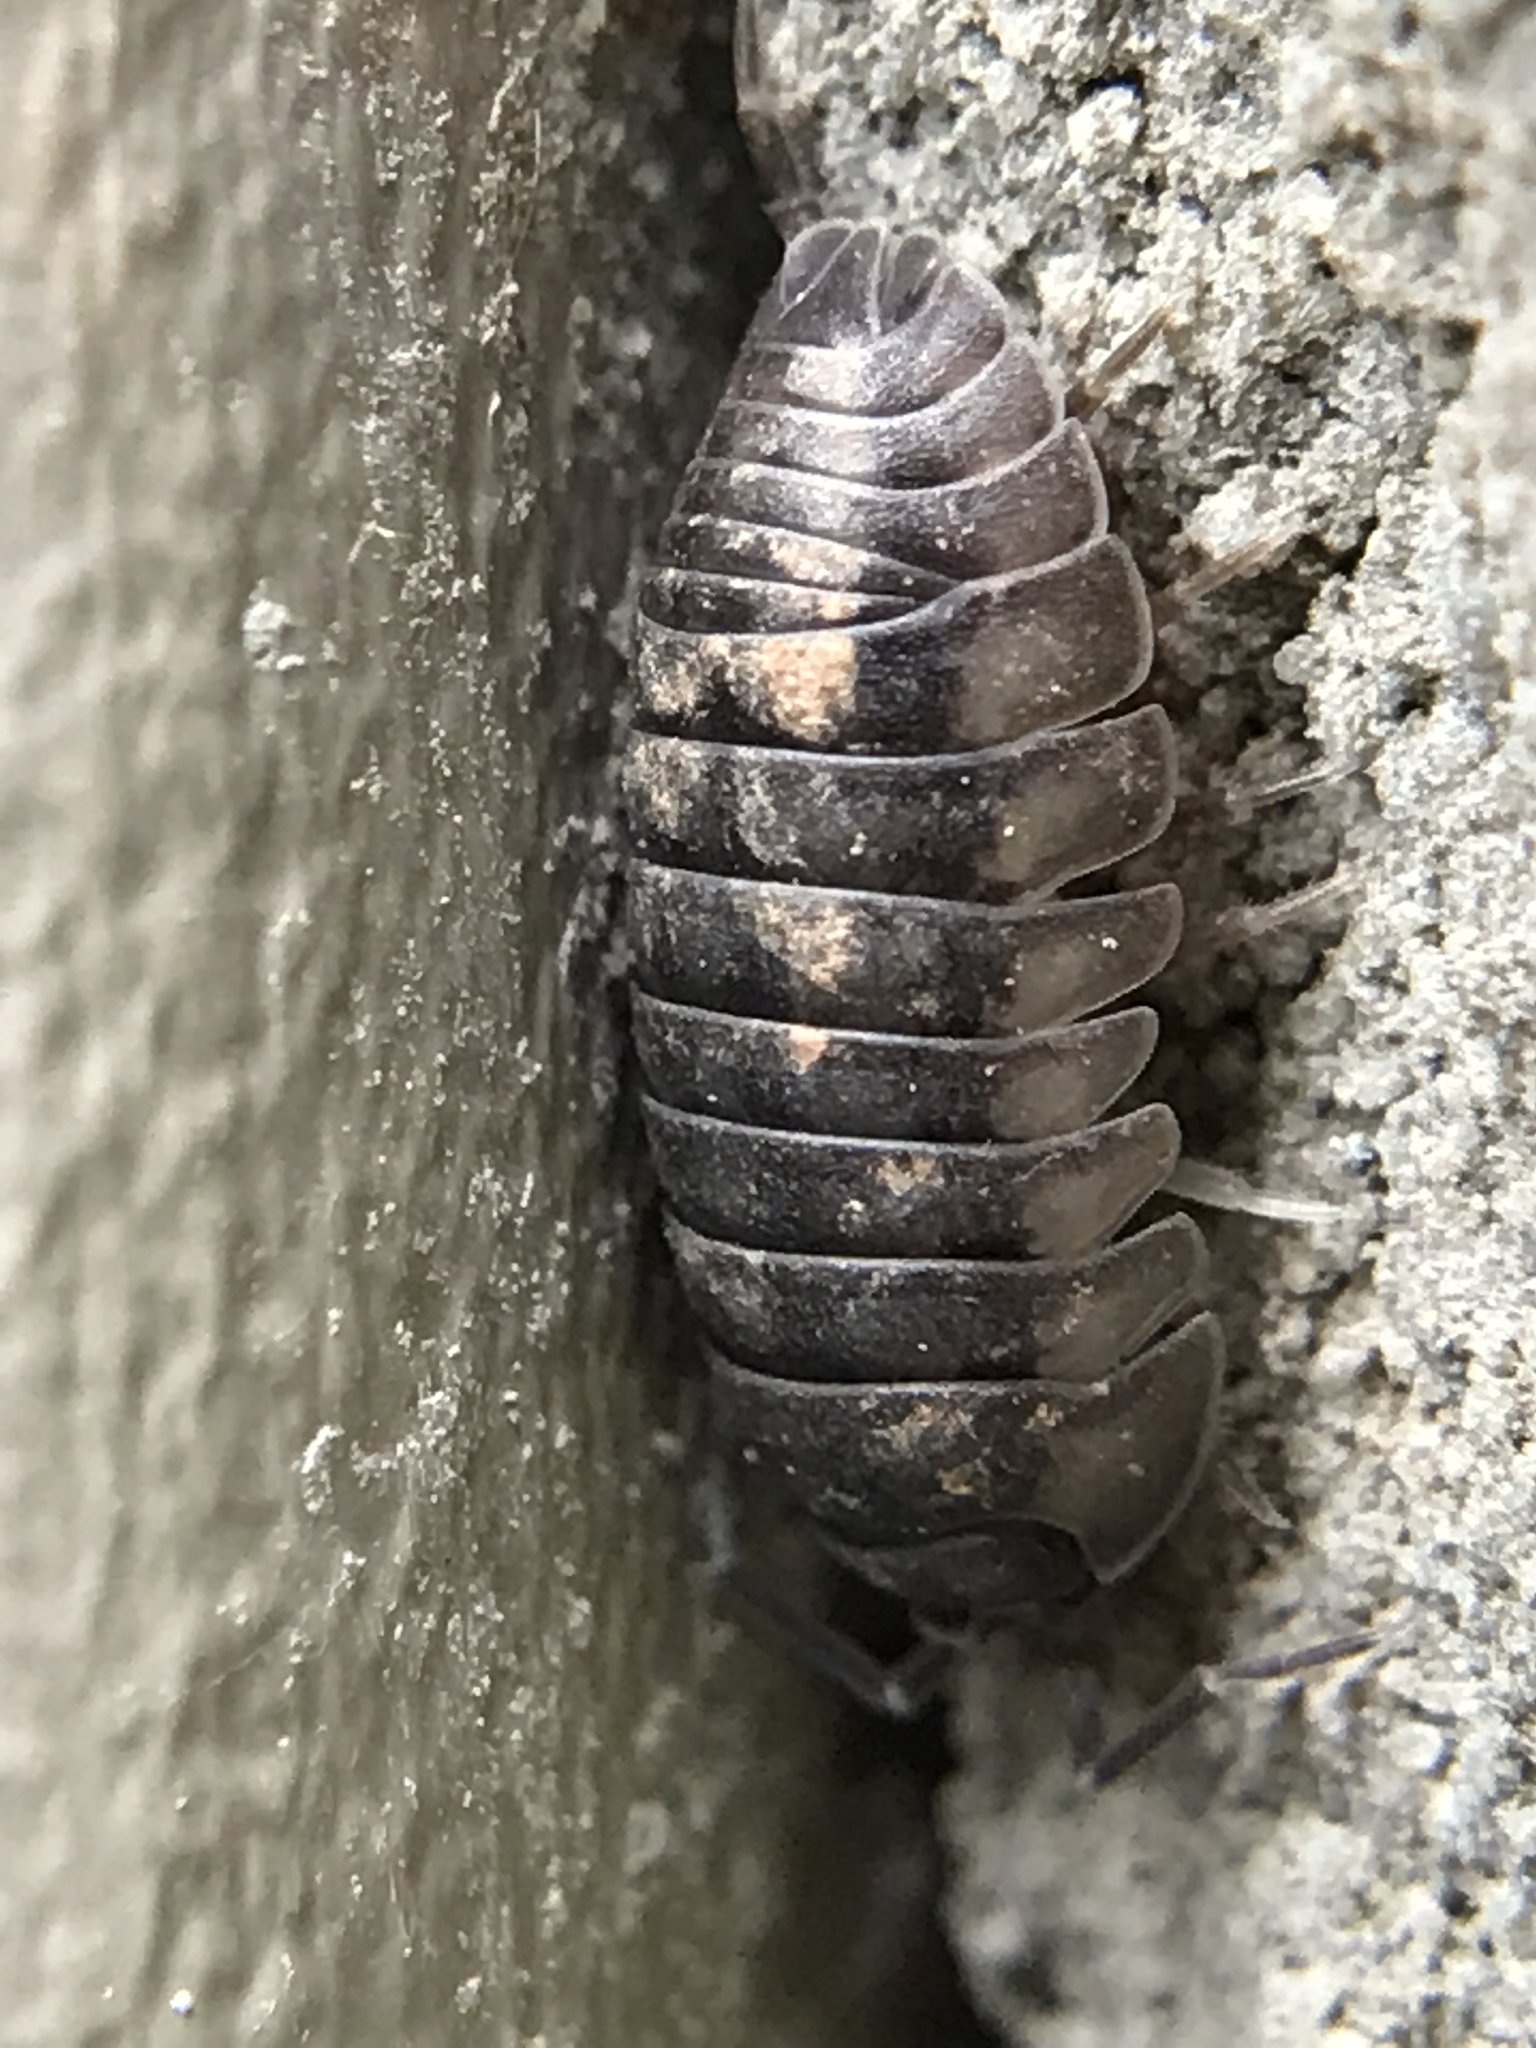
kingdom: Animalia
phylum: Arthropoda
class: Malacostraca
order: Isopoda
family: Armadillidiidae
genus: Armadillidium
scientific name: Armadillidium nasatum
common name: Isopod
